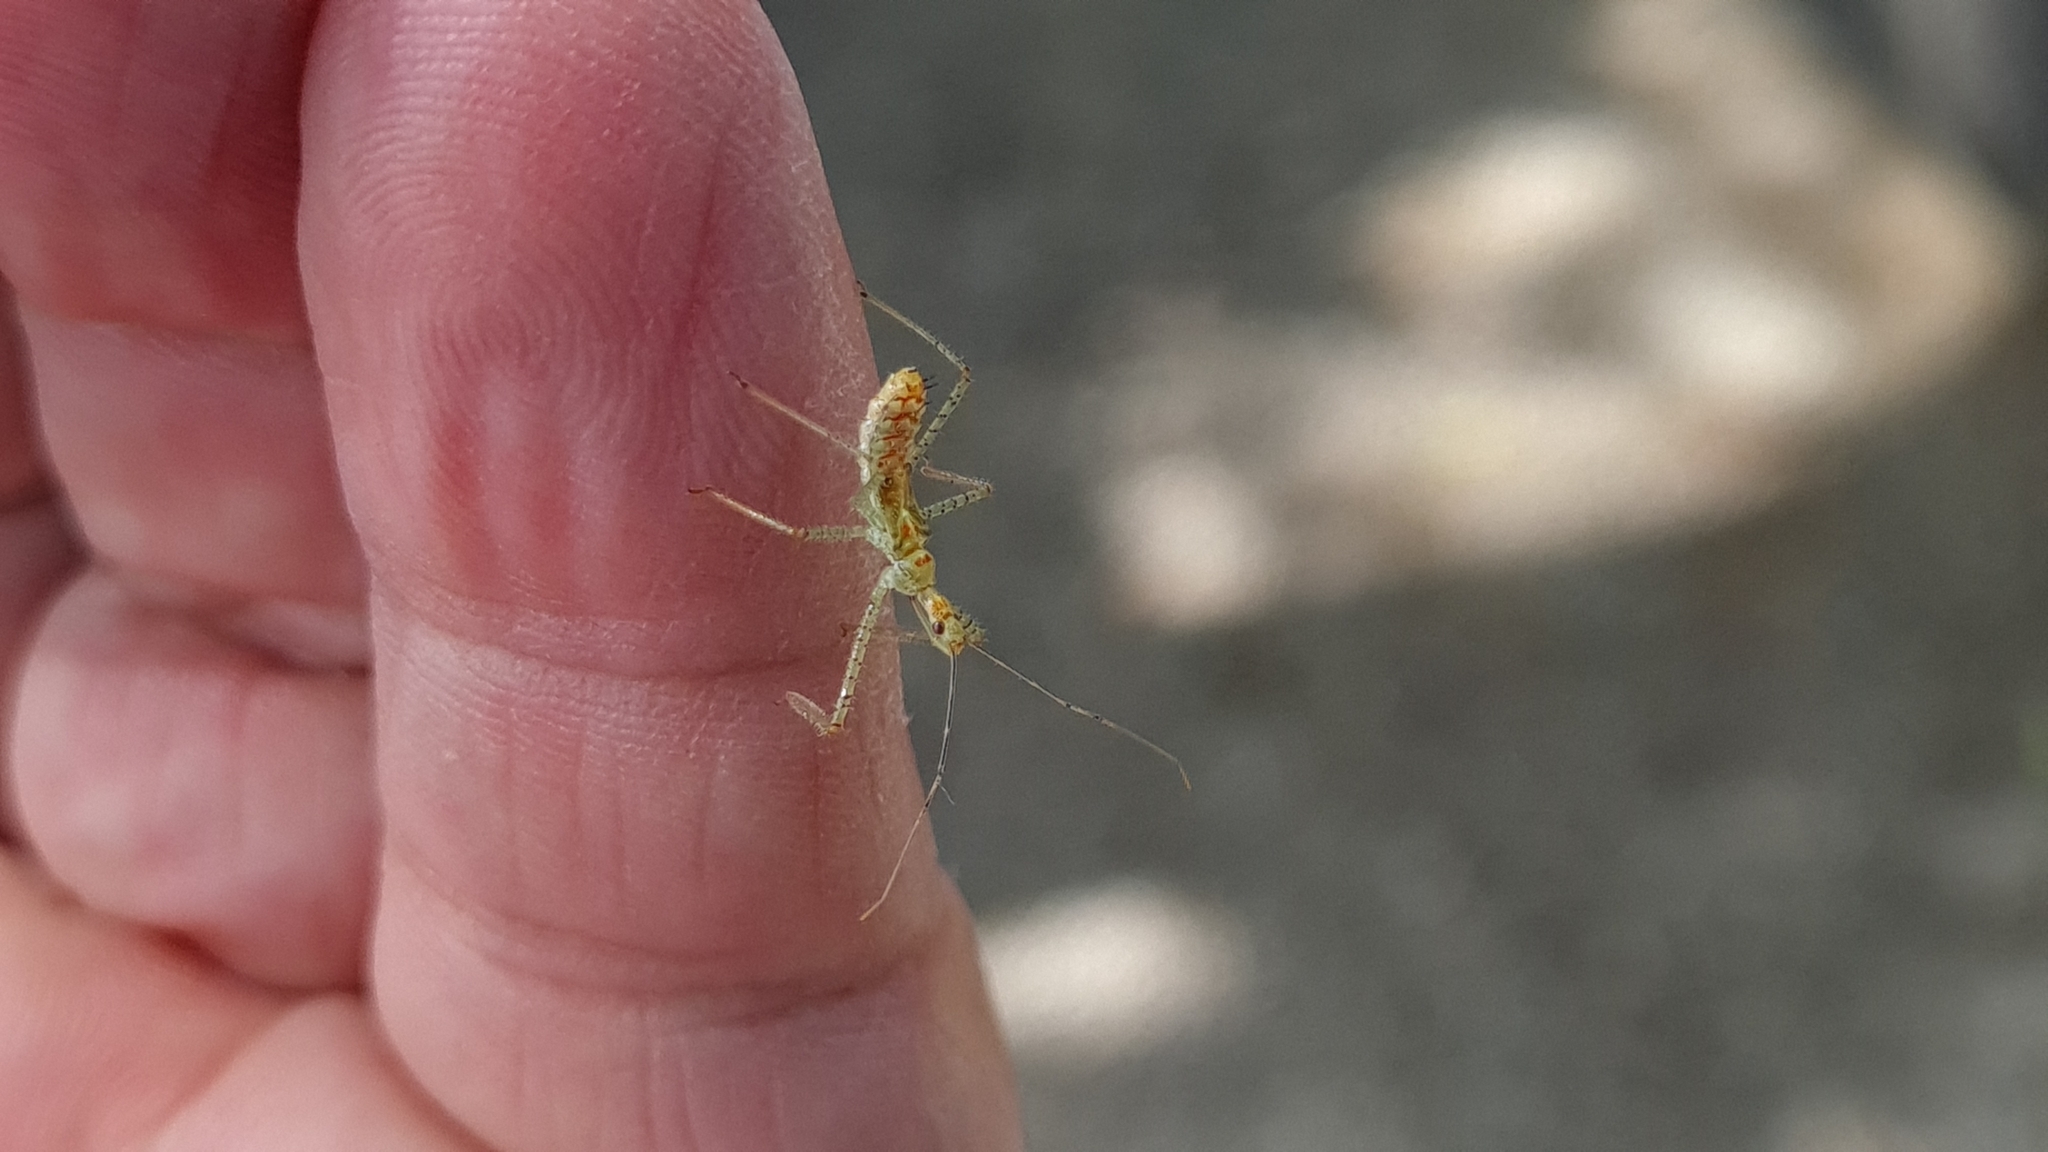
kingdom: Animalia
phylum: Arthropoda
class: Insecta
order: Hemiptera
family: Reduviidae
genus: Zelus
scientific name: Zelus renardii
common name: Assassin bug
